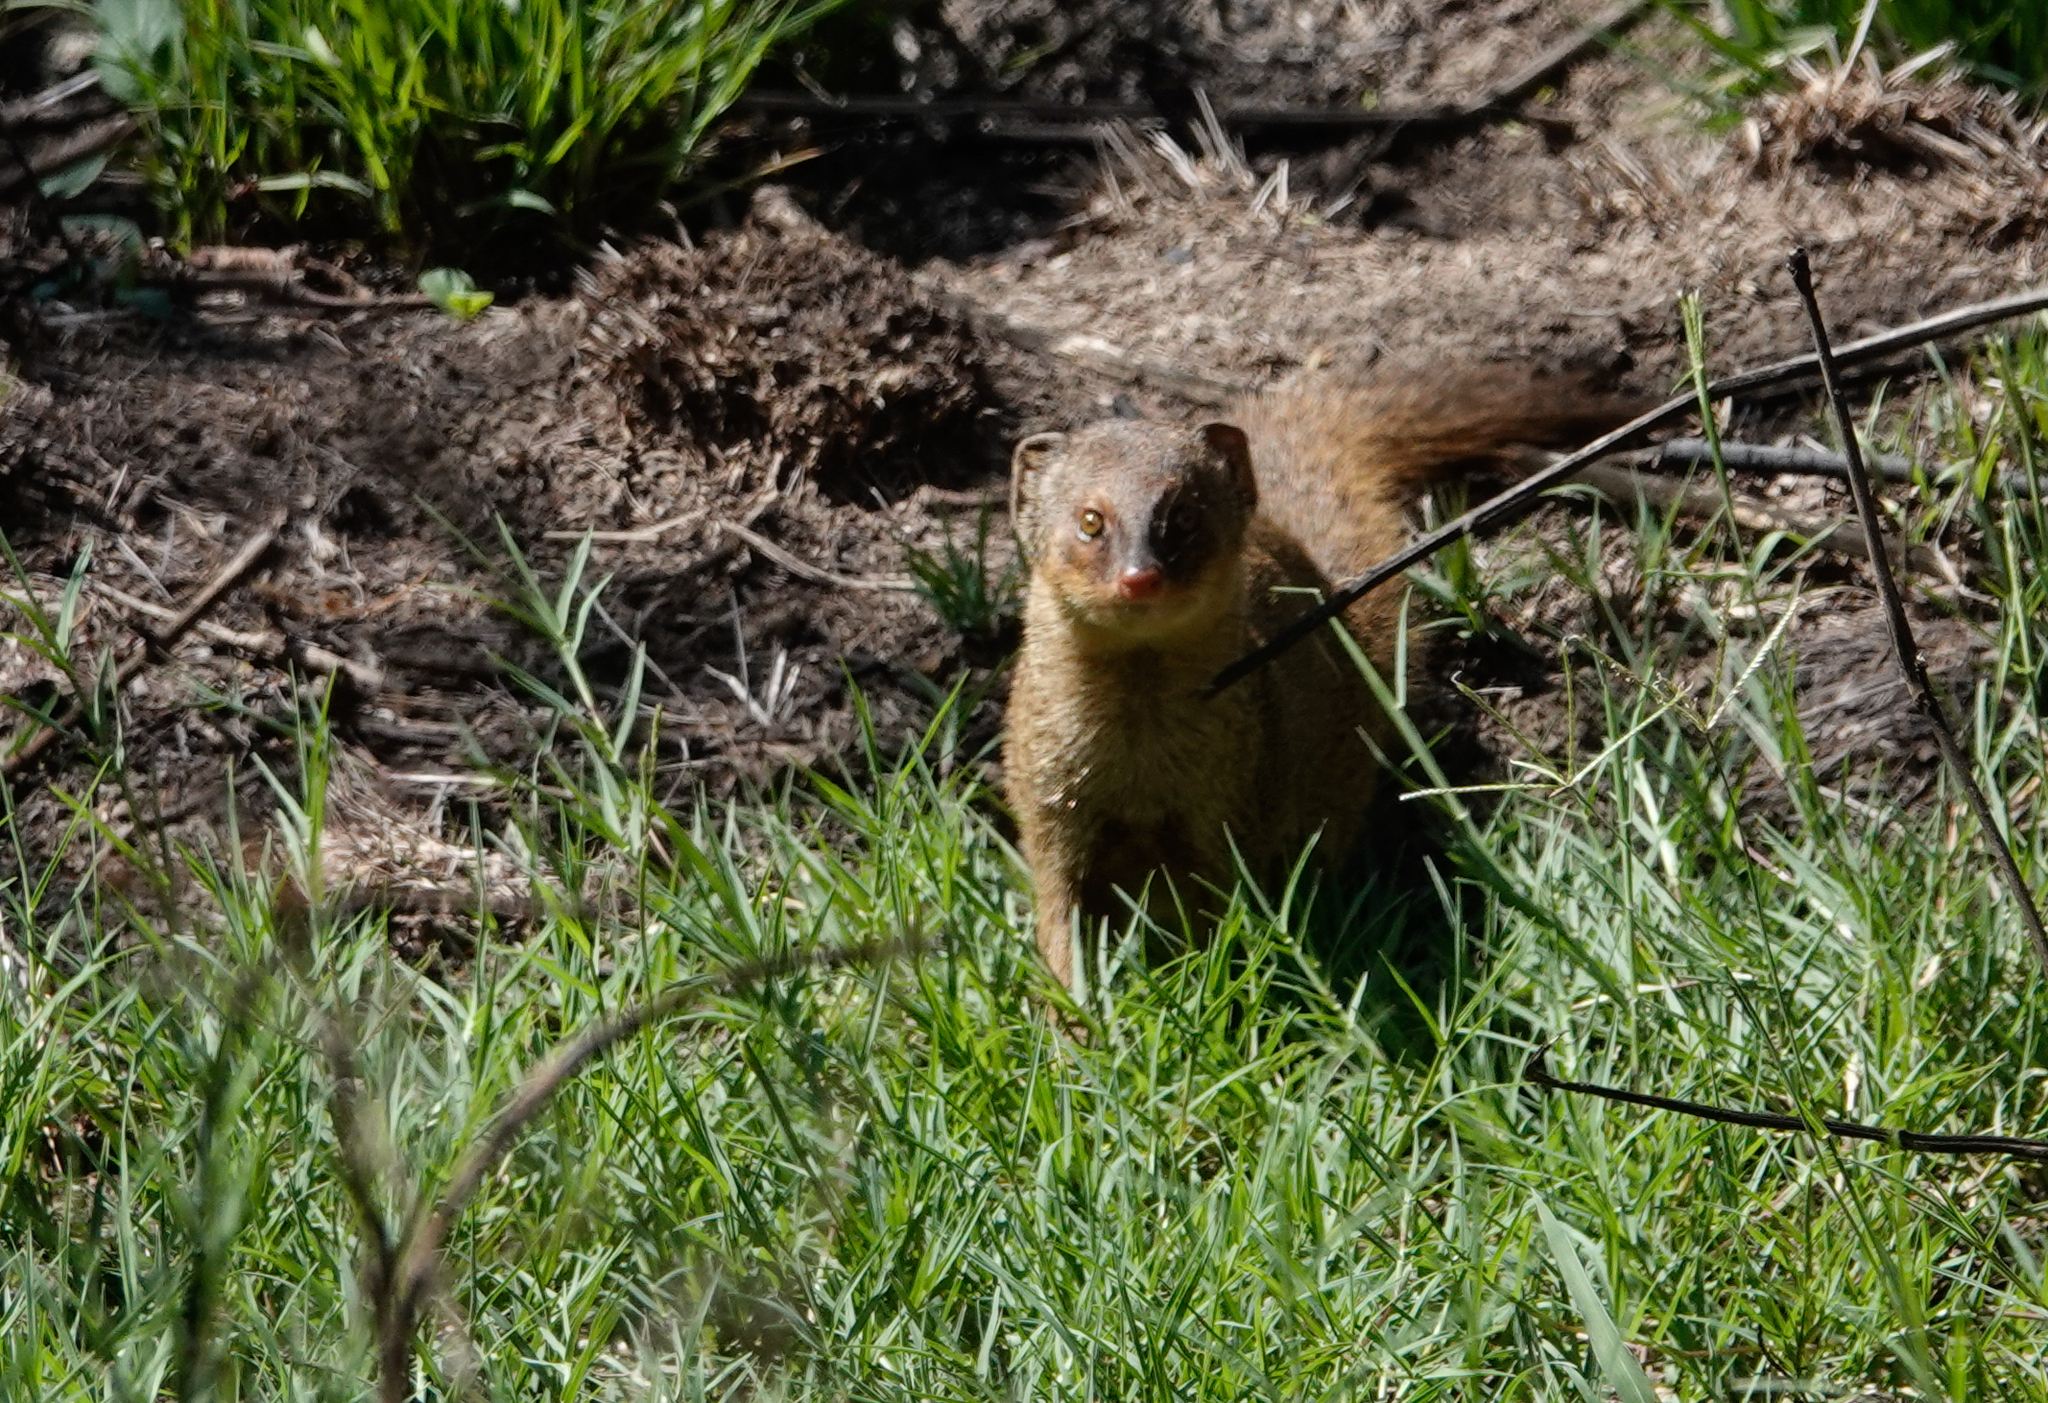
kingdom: Animalia
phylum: Chordata
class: Mammalia
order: Carnivora
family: Herpestidae
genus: Herpestes
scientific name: Herpestes javanicus
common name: Small asian mongoose
